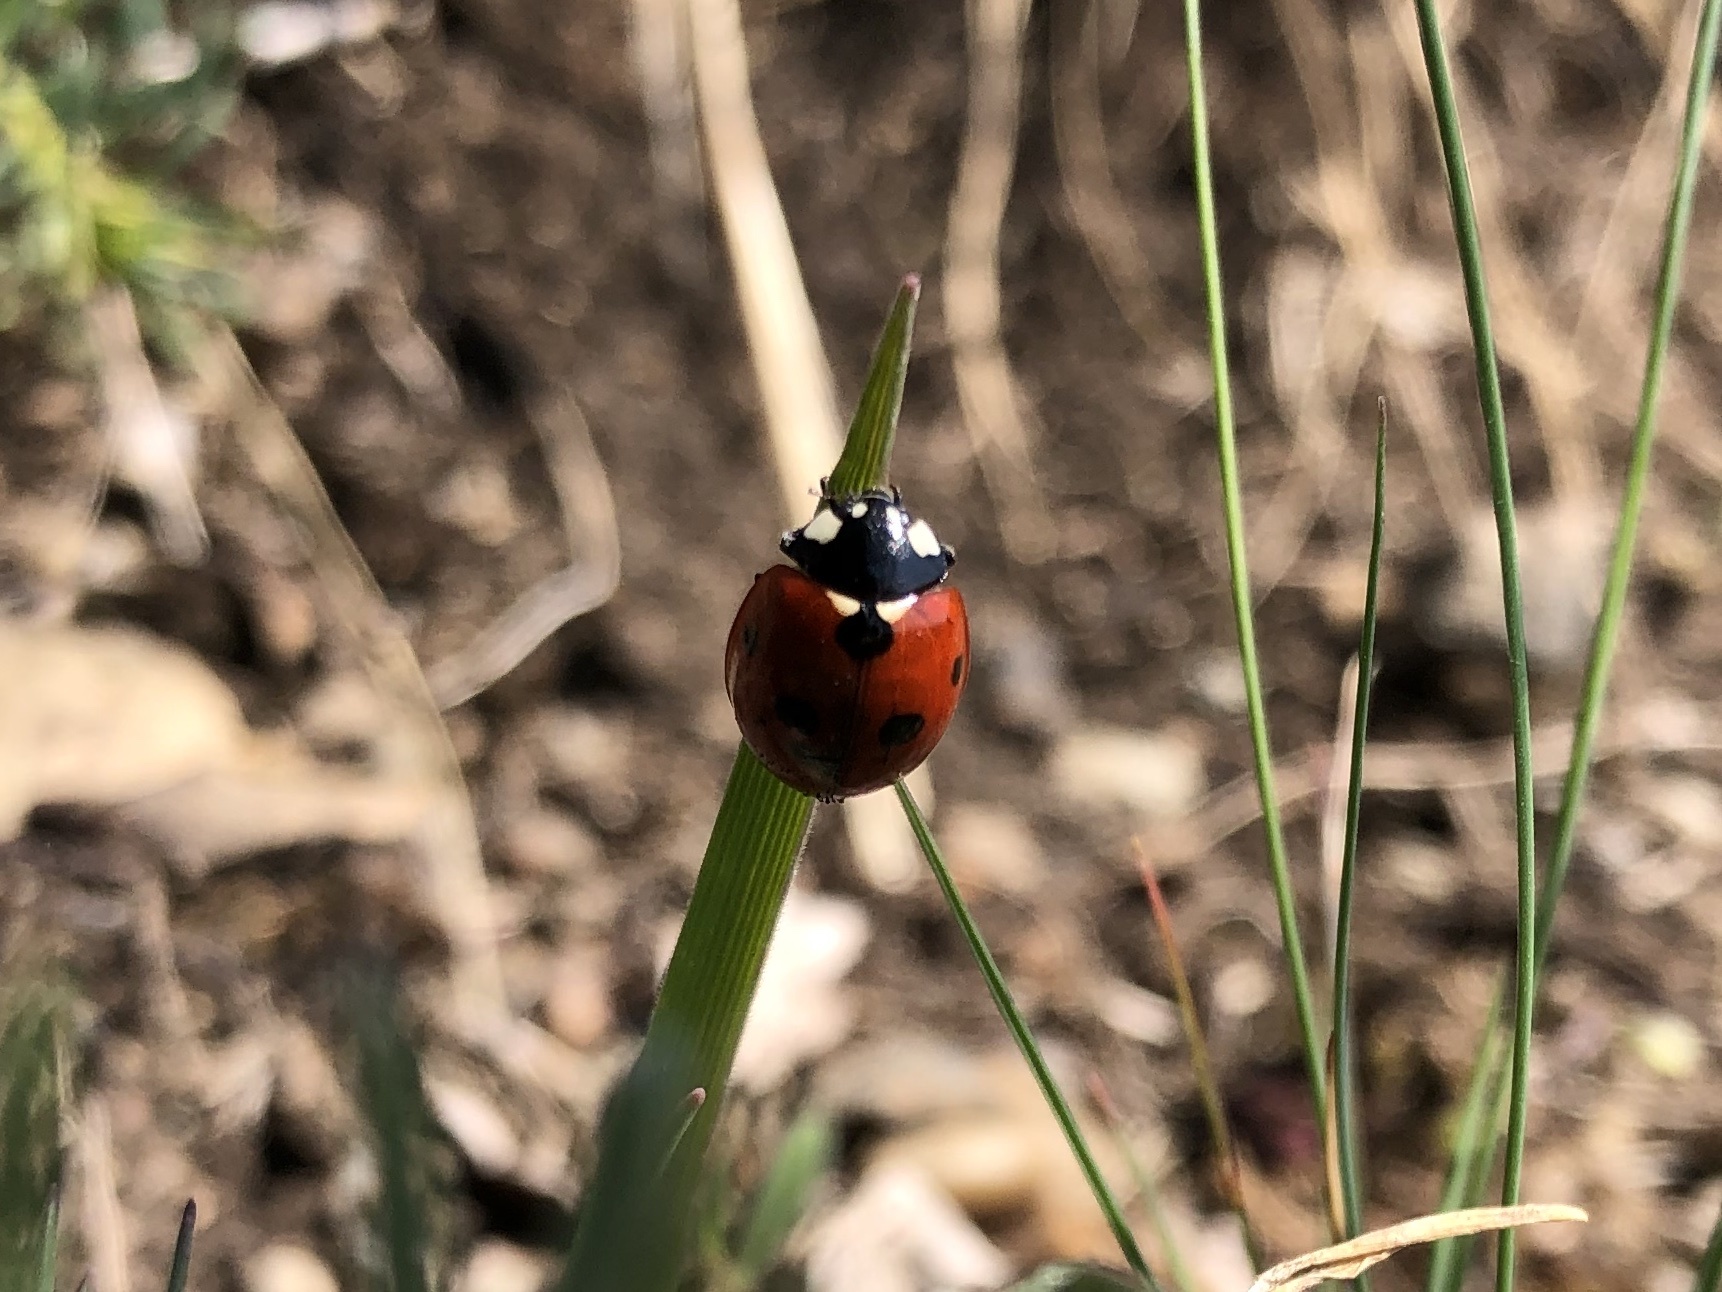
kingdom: Animalia
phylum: Arthropoda
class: Insecta
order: Coleoptera
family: Coccinellidae
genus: Coccinella
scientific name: Coccinella septempunctata
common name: Sevenspotted lady beetle
